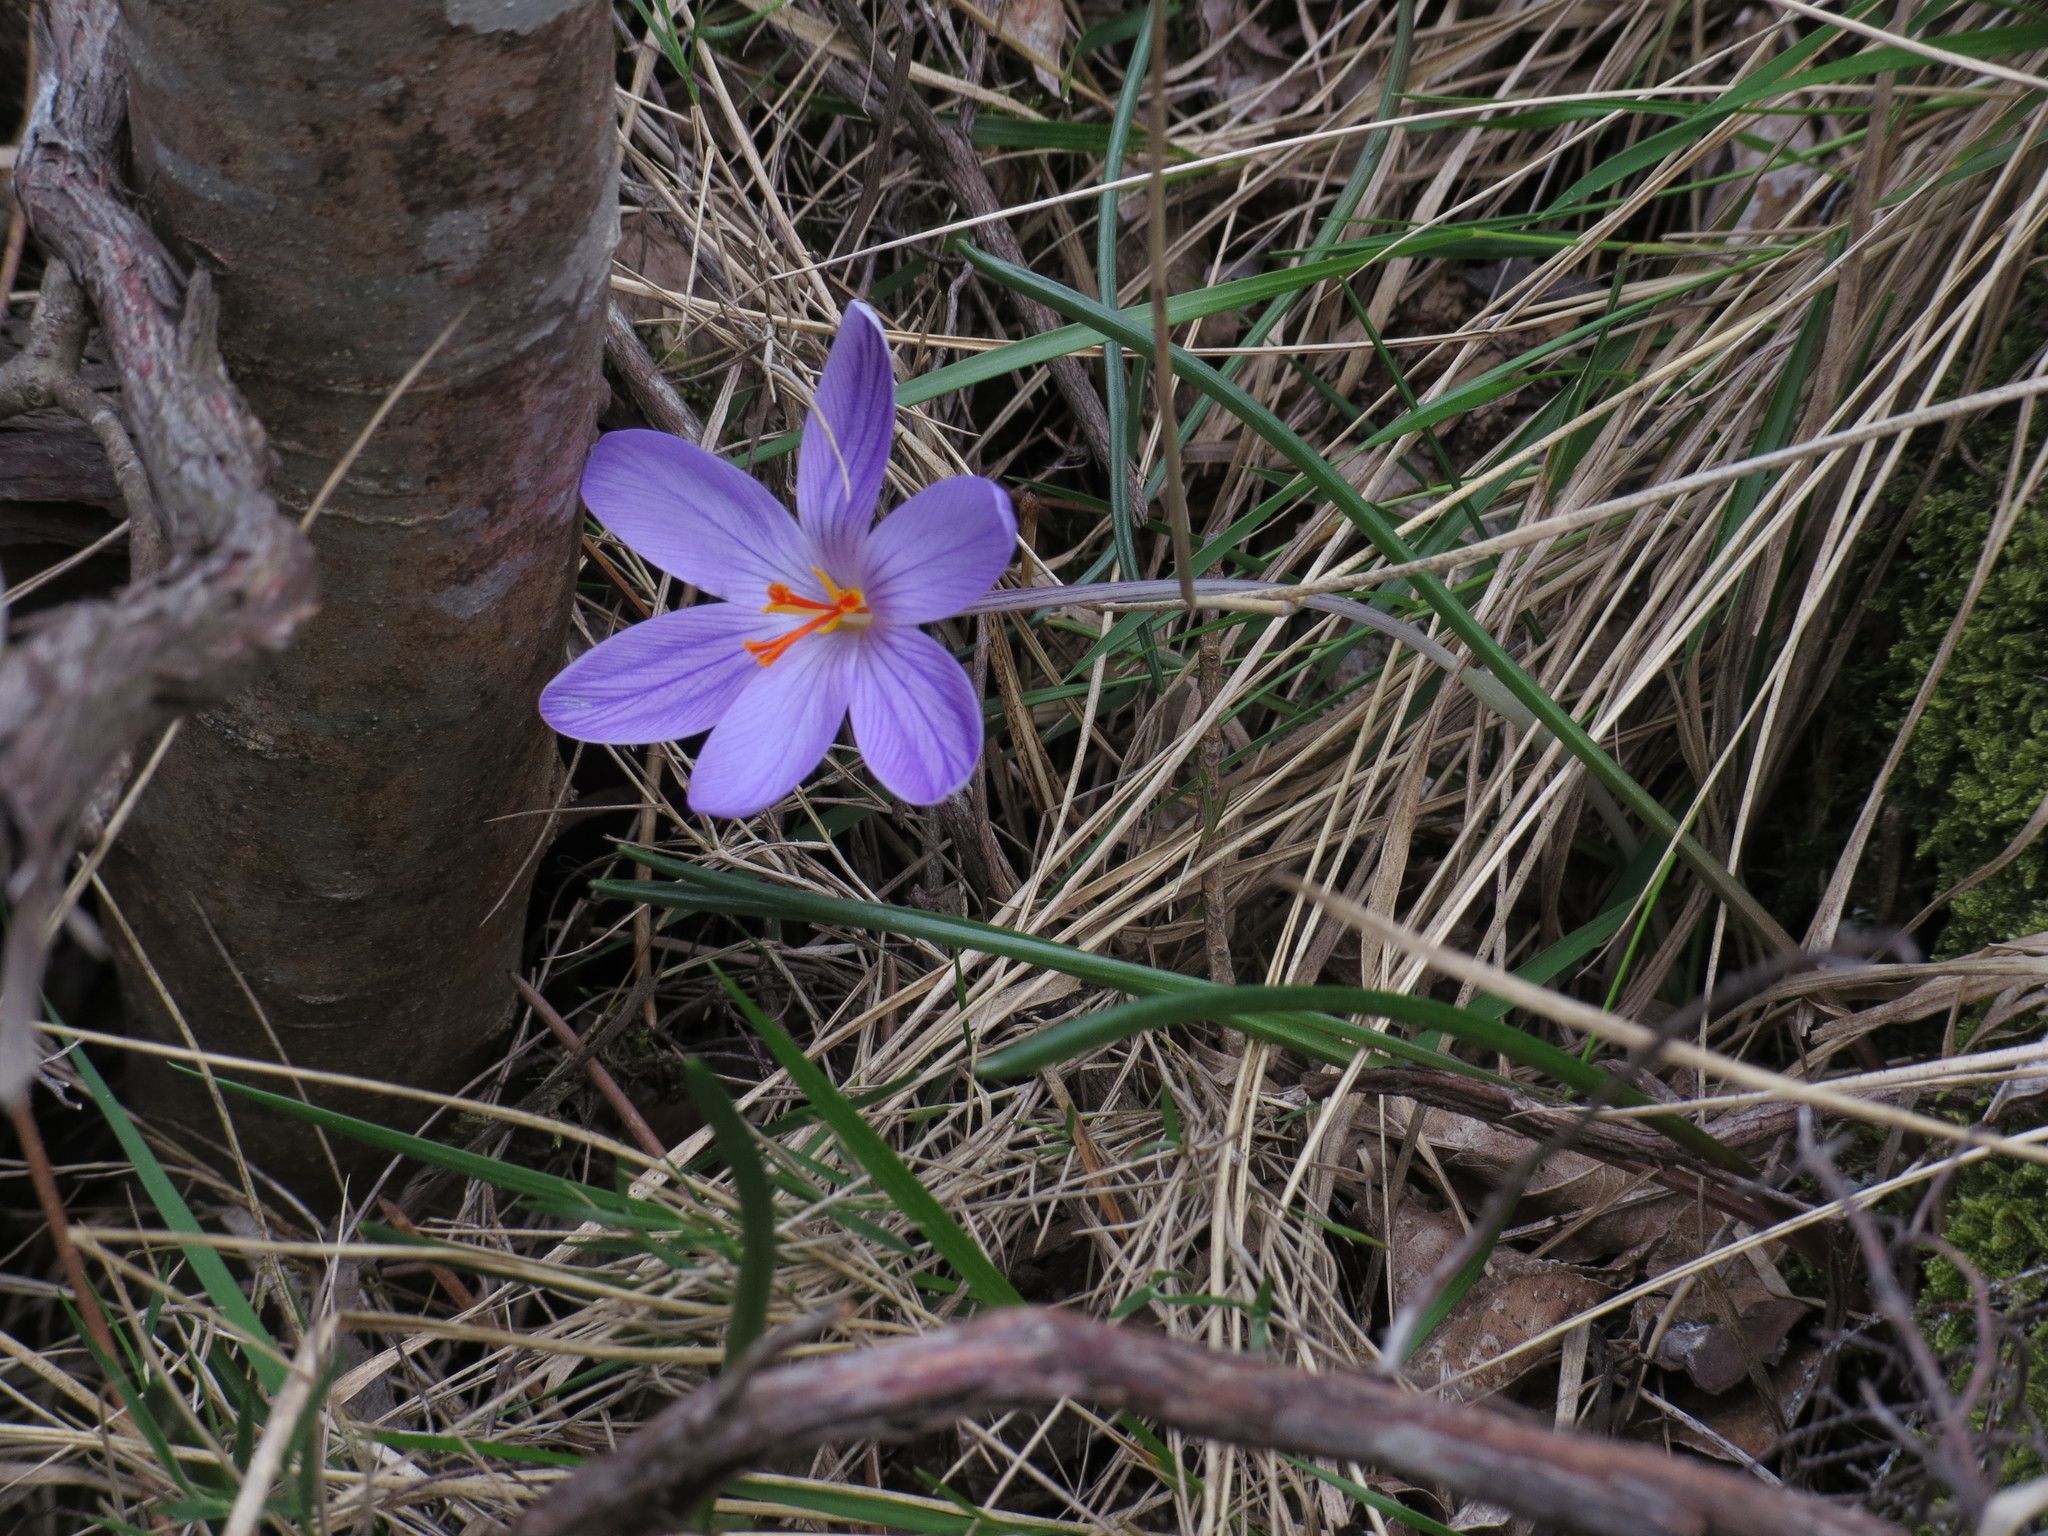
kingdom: Plantae
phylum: Tracheophyta
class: Liliopsida
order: Asparagales
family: Iridaceae
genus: Crocus
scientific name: Crocus corsicus
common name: Corsican crocus
